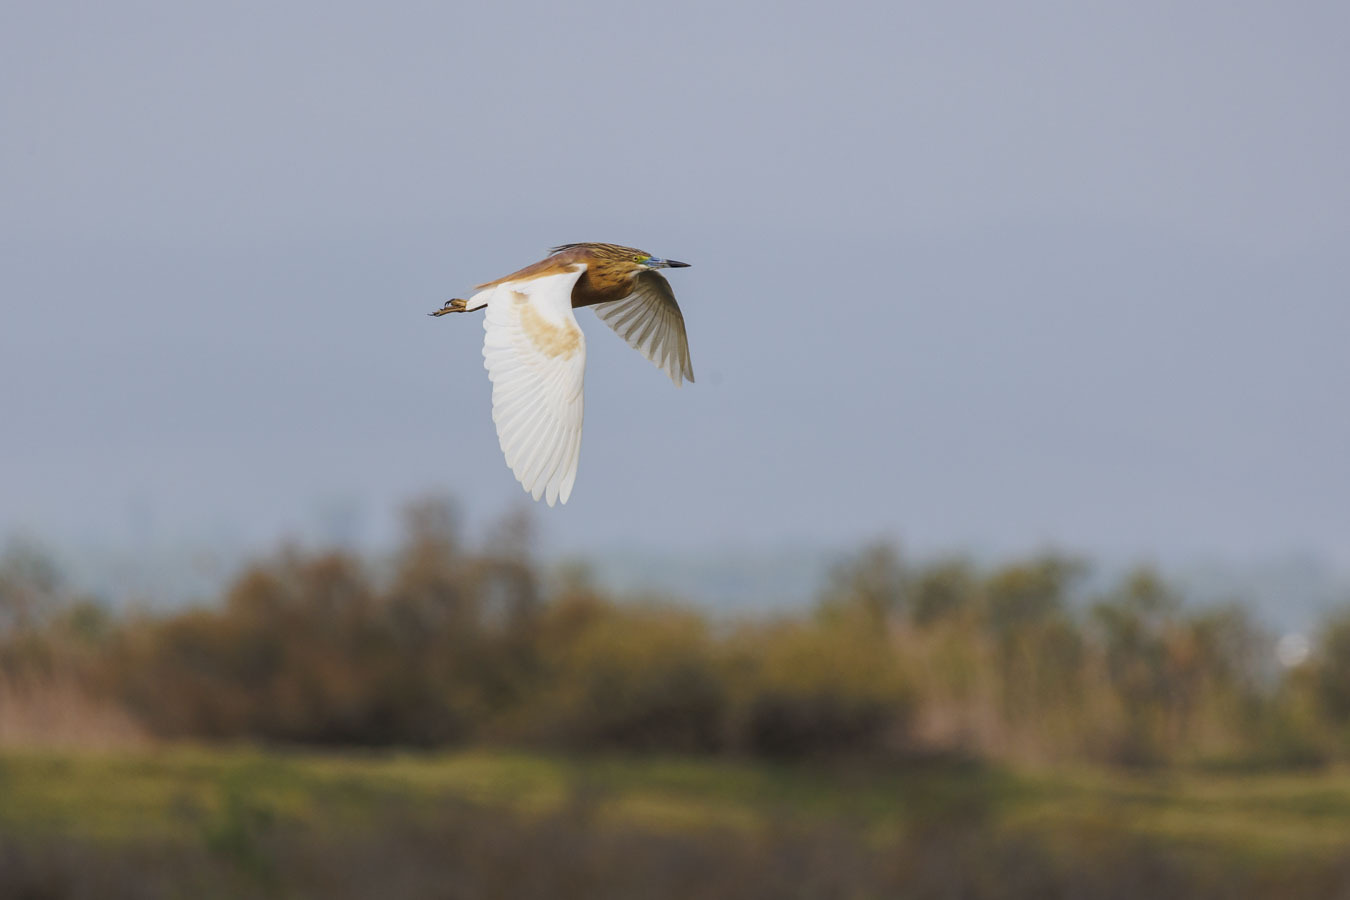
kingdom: Animalia
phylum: Chordata
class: Aves
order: Pelecaniformes
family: Ardeidae
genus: Ardeola
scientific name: Ardeola ralloides
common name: Squacco heron
